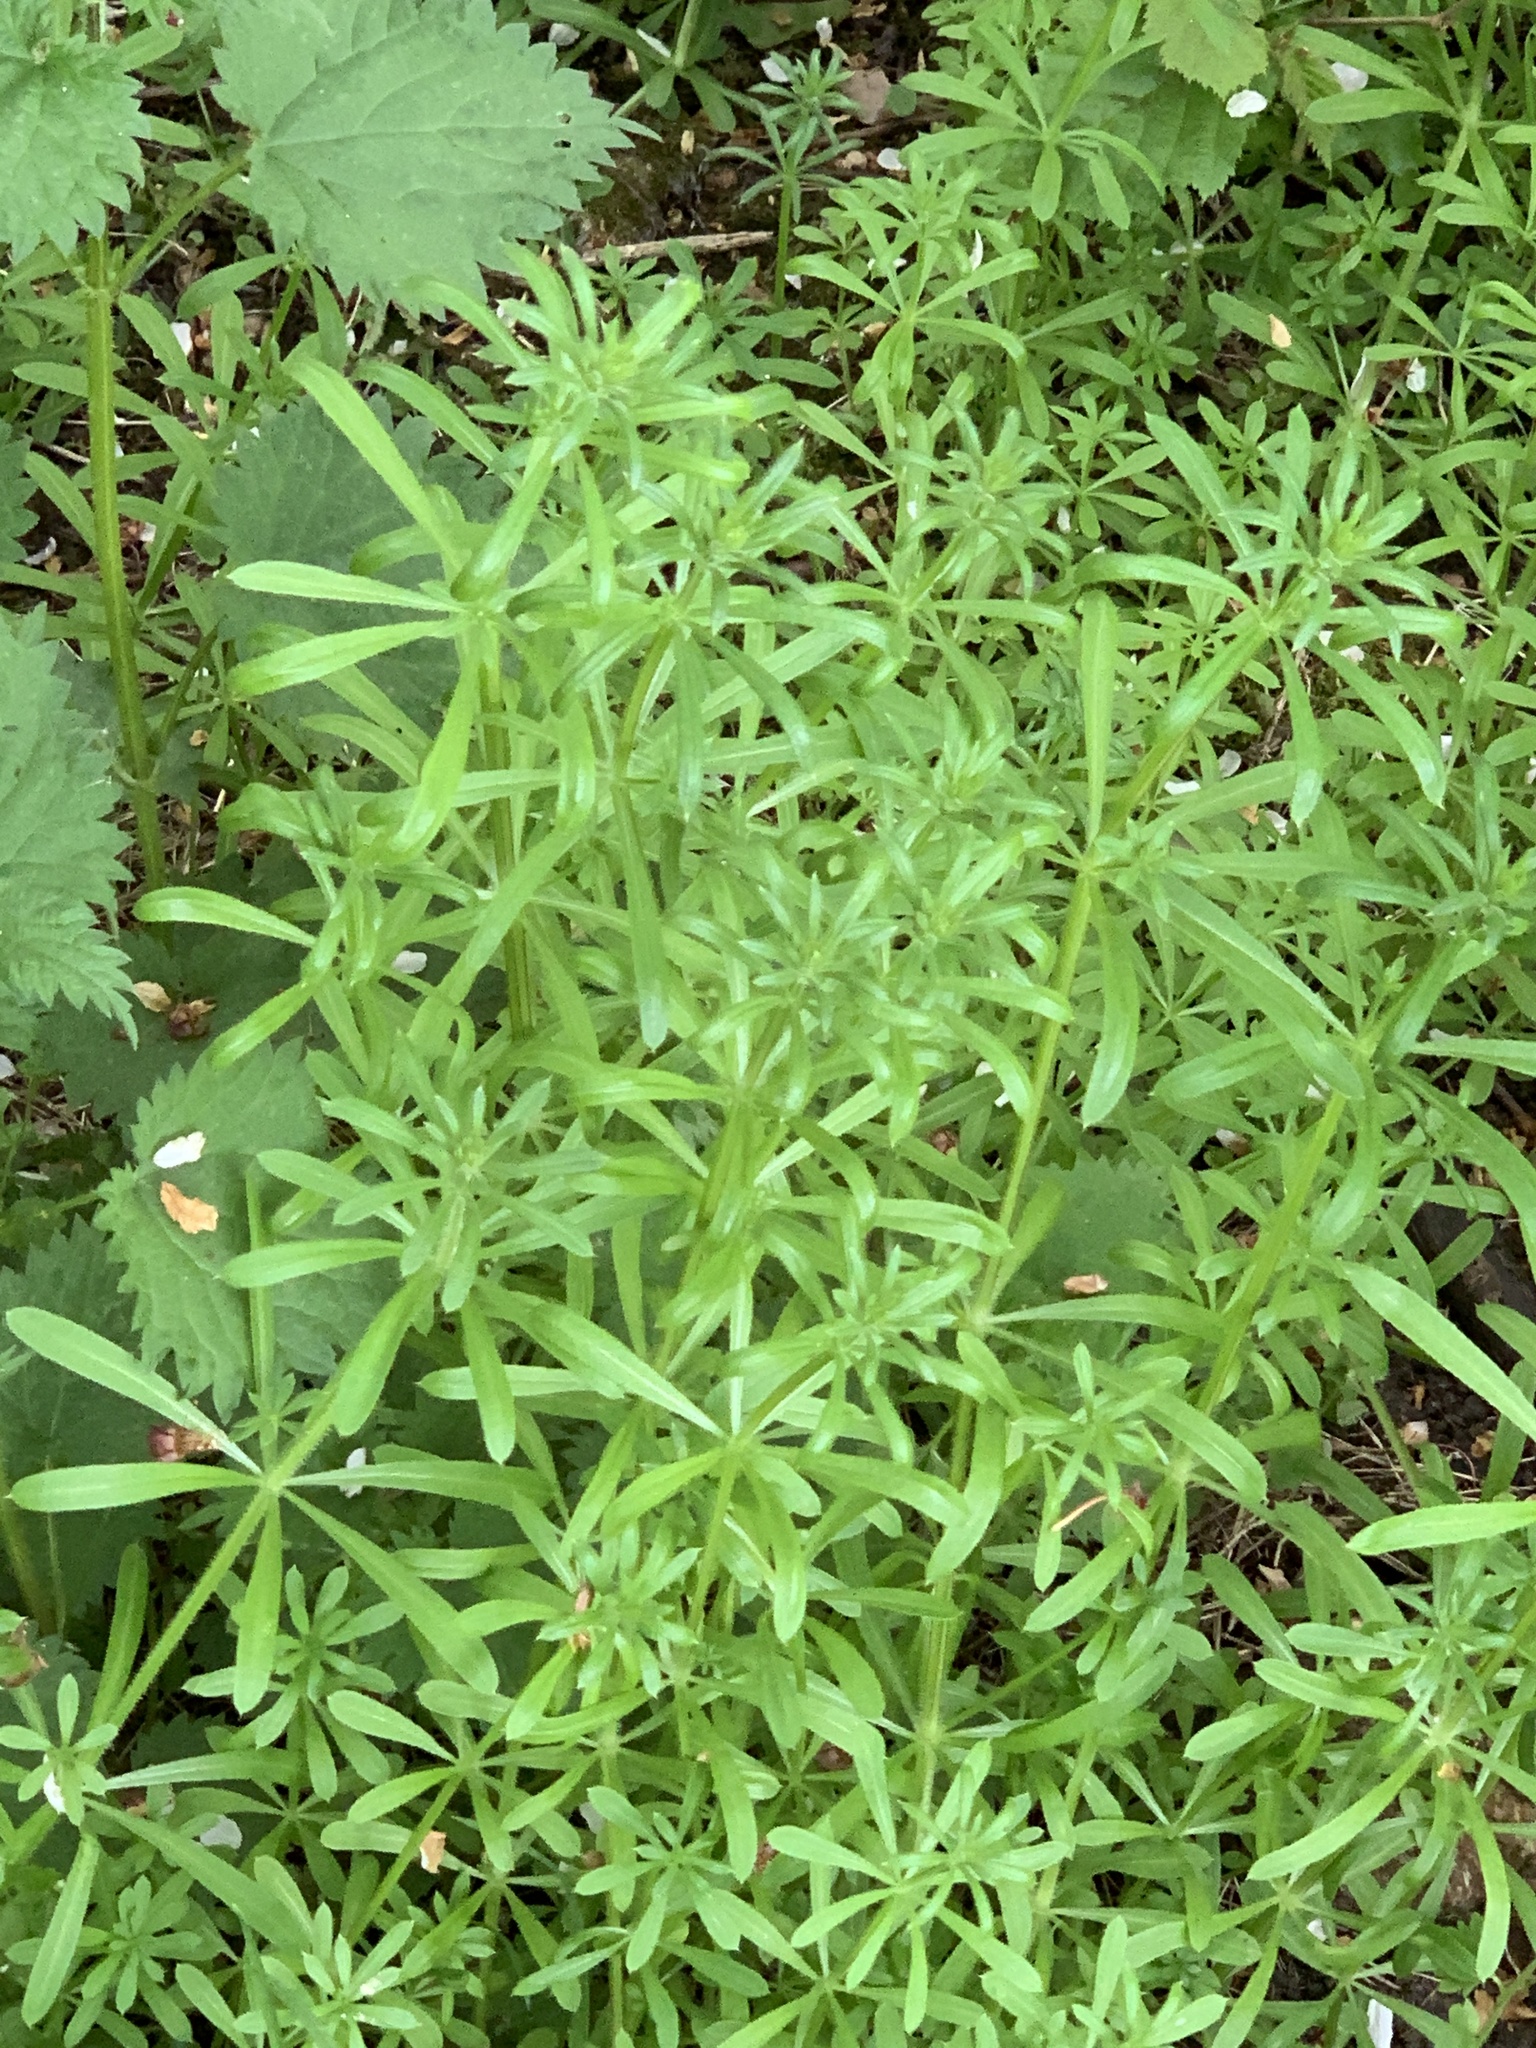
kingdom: Plantae
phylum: Tracheophyta
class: Magnoliopsida
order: Gentianales
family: Rubiaceae
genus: Galium
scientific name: Galium aparine
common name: Cleavers
